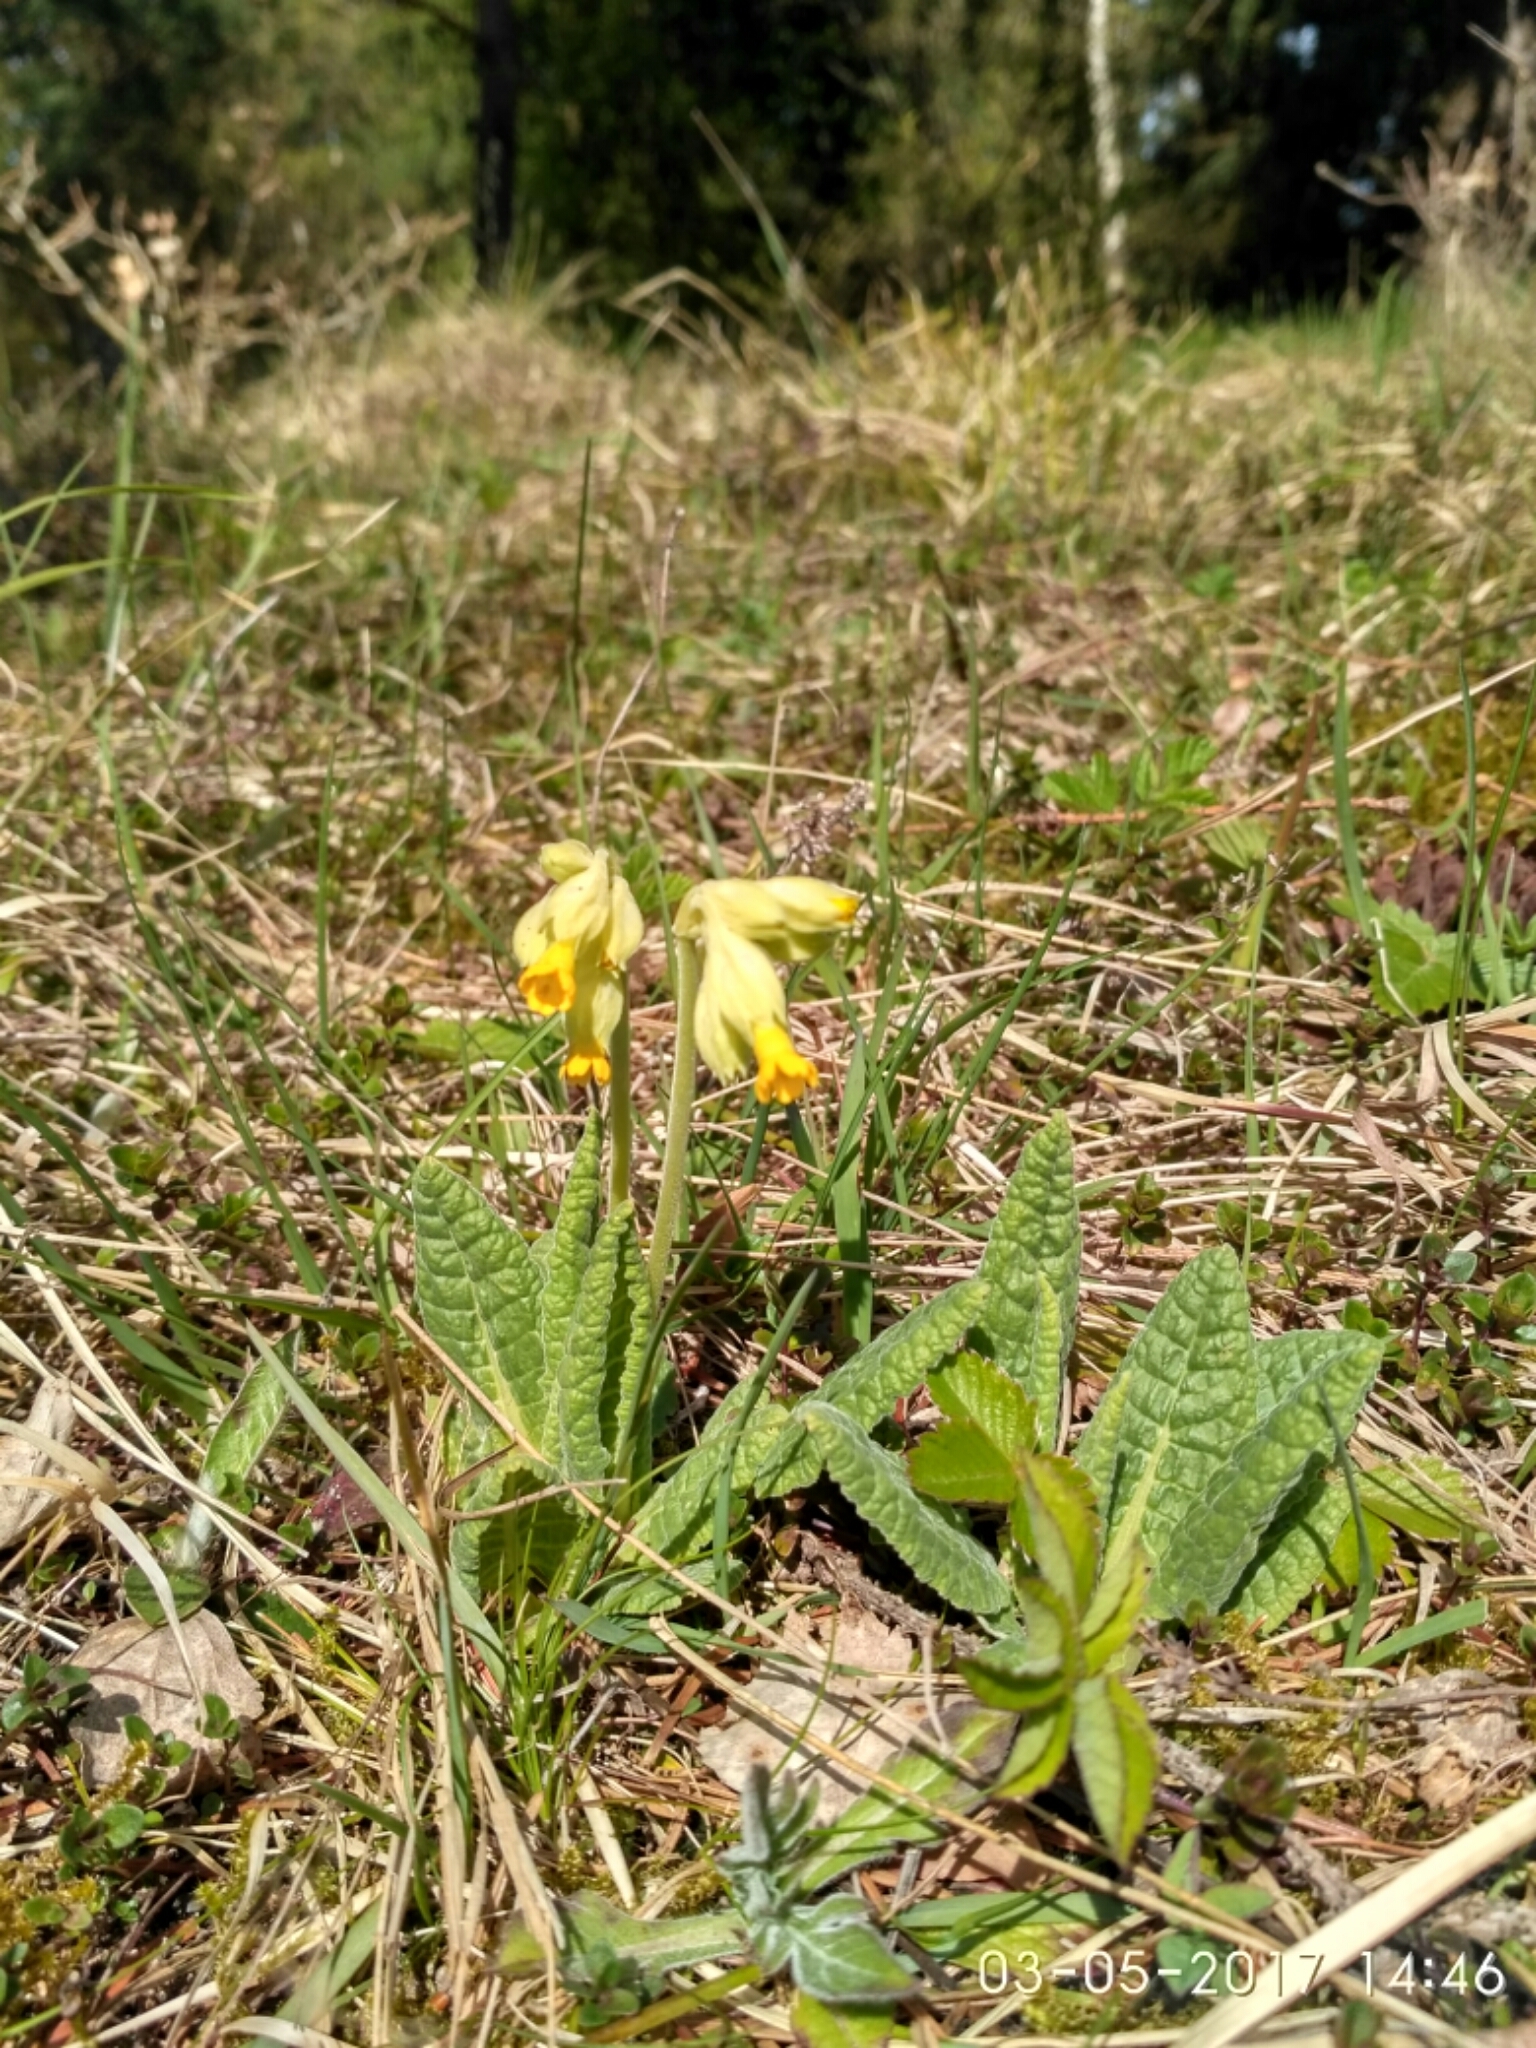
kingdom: Plantae
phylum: Tracheophyta
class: Magnoliopsida
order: Ericales
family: Primulaceae
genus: Primula
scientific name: Primula veris
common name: Cowslip
